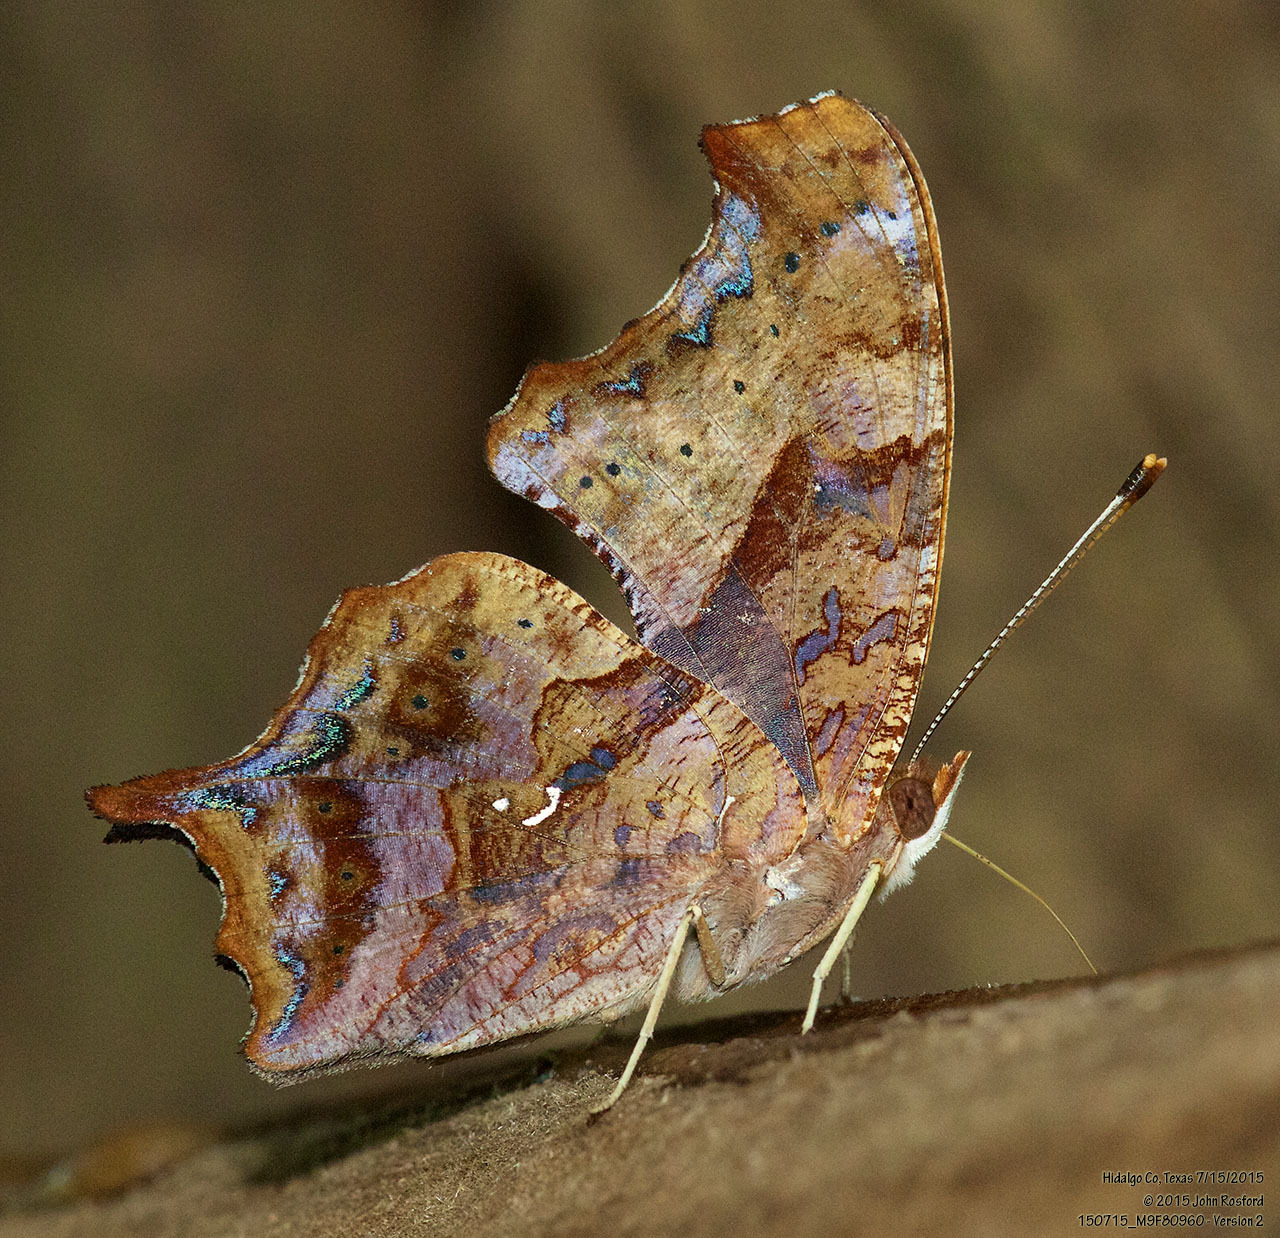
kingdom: Animalia
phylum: Arthropoda
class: Insecta
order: Lepidoptera
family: Nymphalidae
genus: Polygonia
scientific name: Polygonia interrogationis
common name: Question mark
